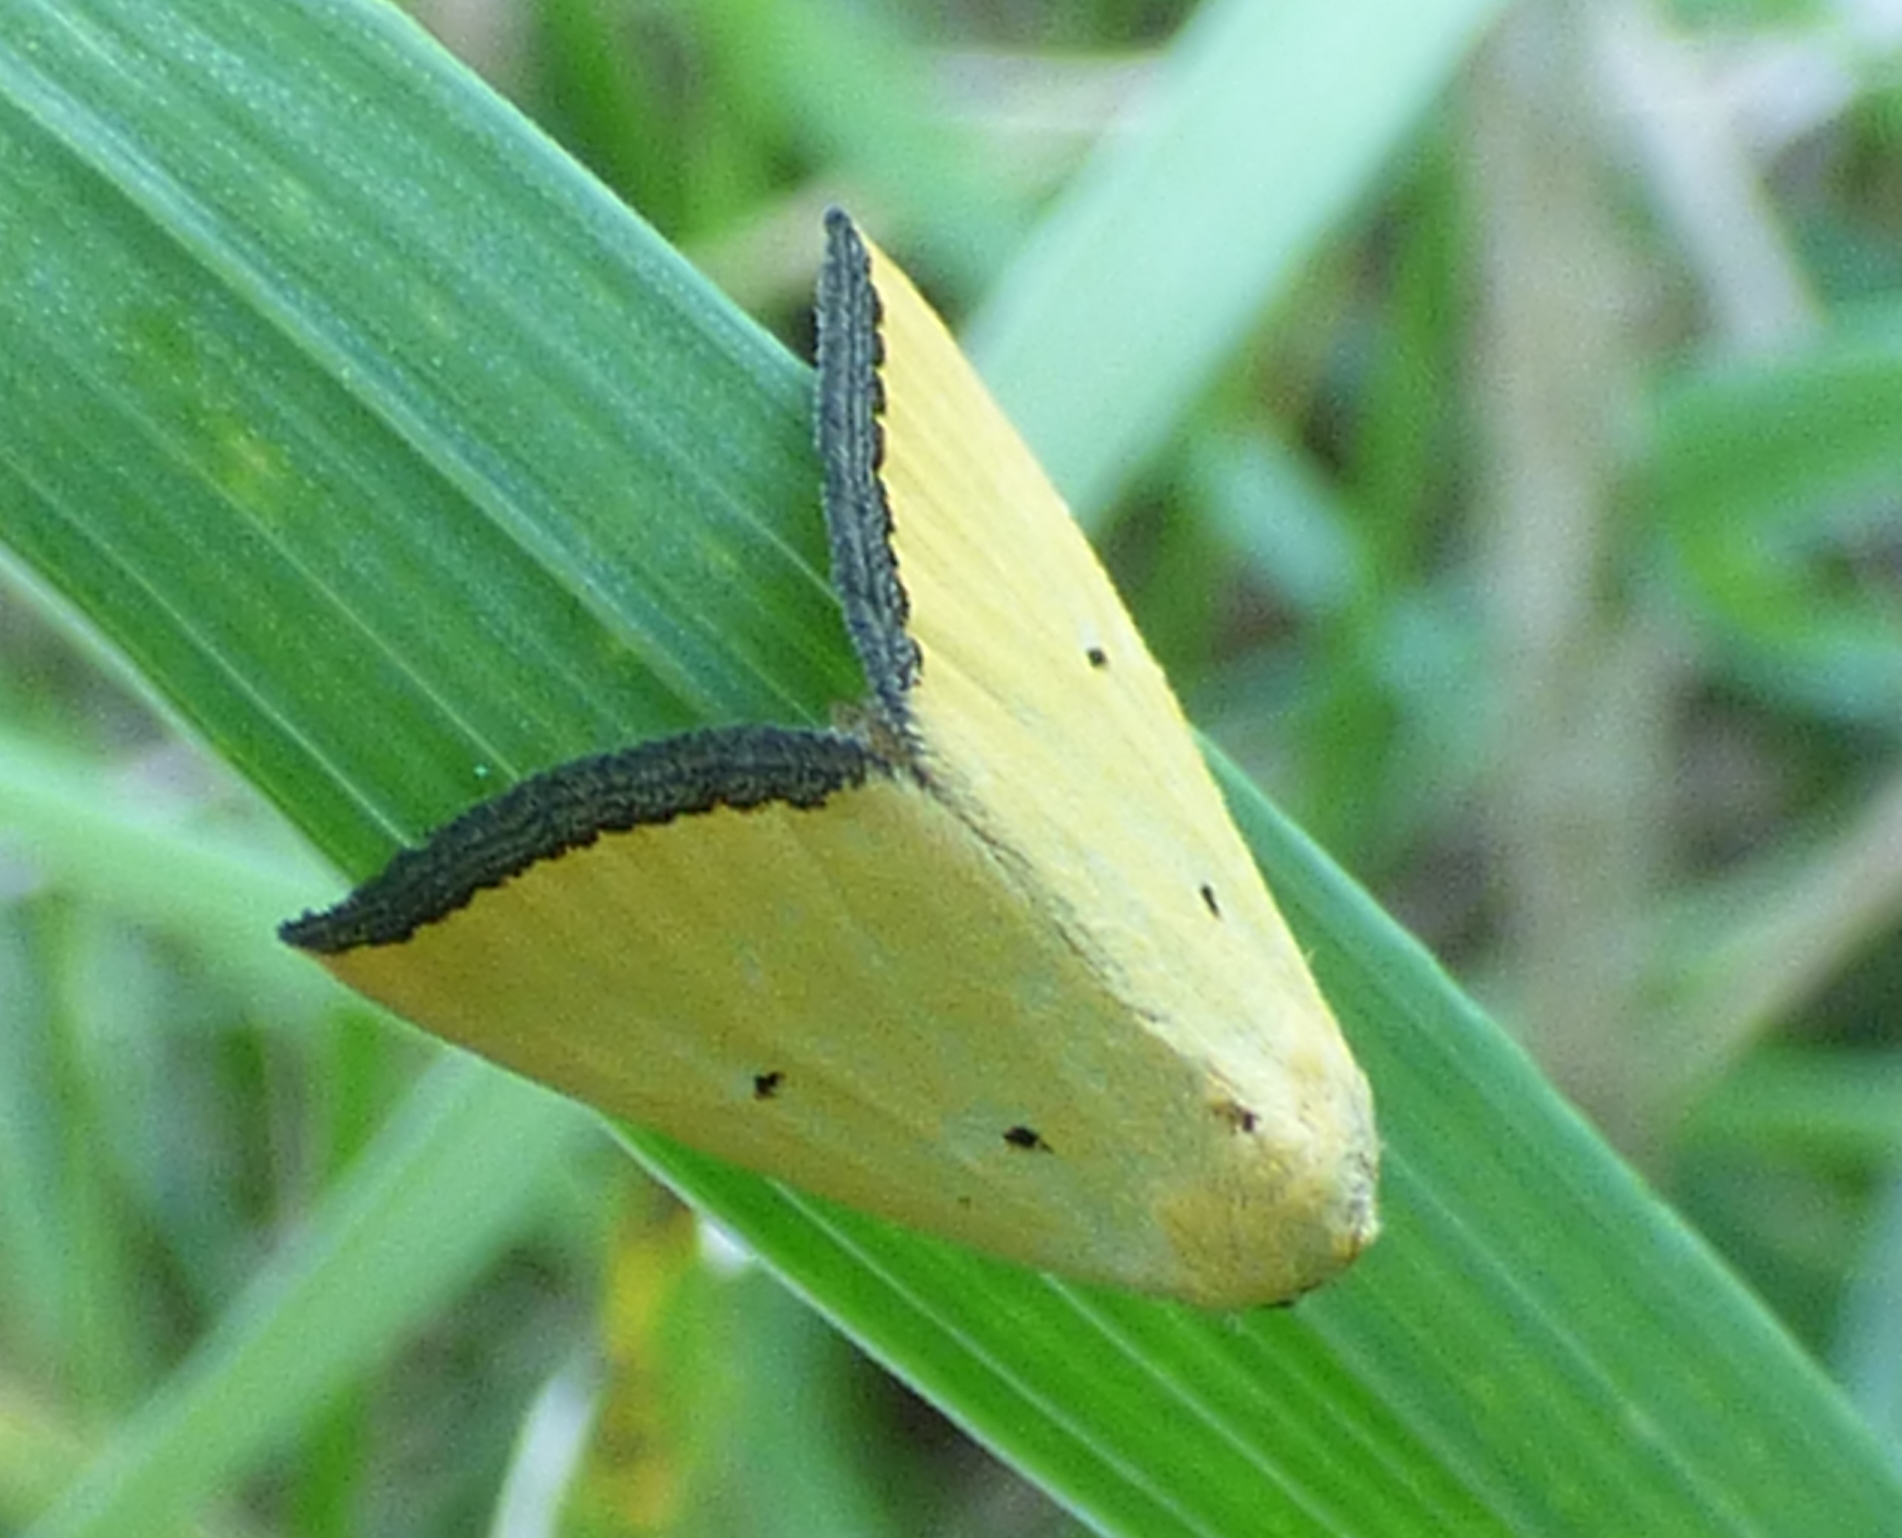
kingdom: Animalia
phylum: Arthropoda
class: Insecta
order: Lepidoptera
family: Noctuidae
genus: Marimatha
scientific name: Marimatha nigrofimbria
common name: Black-bordered lemon moth
